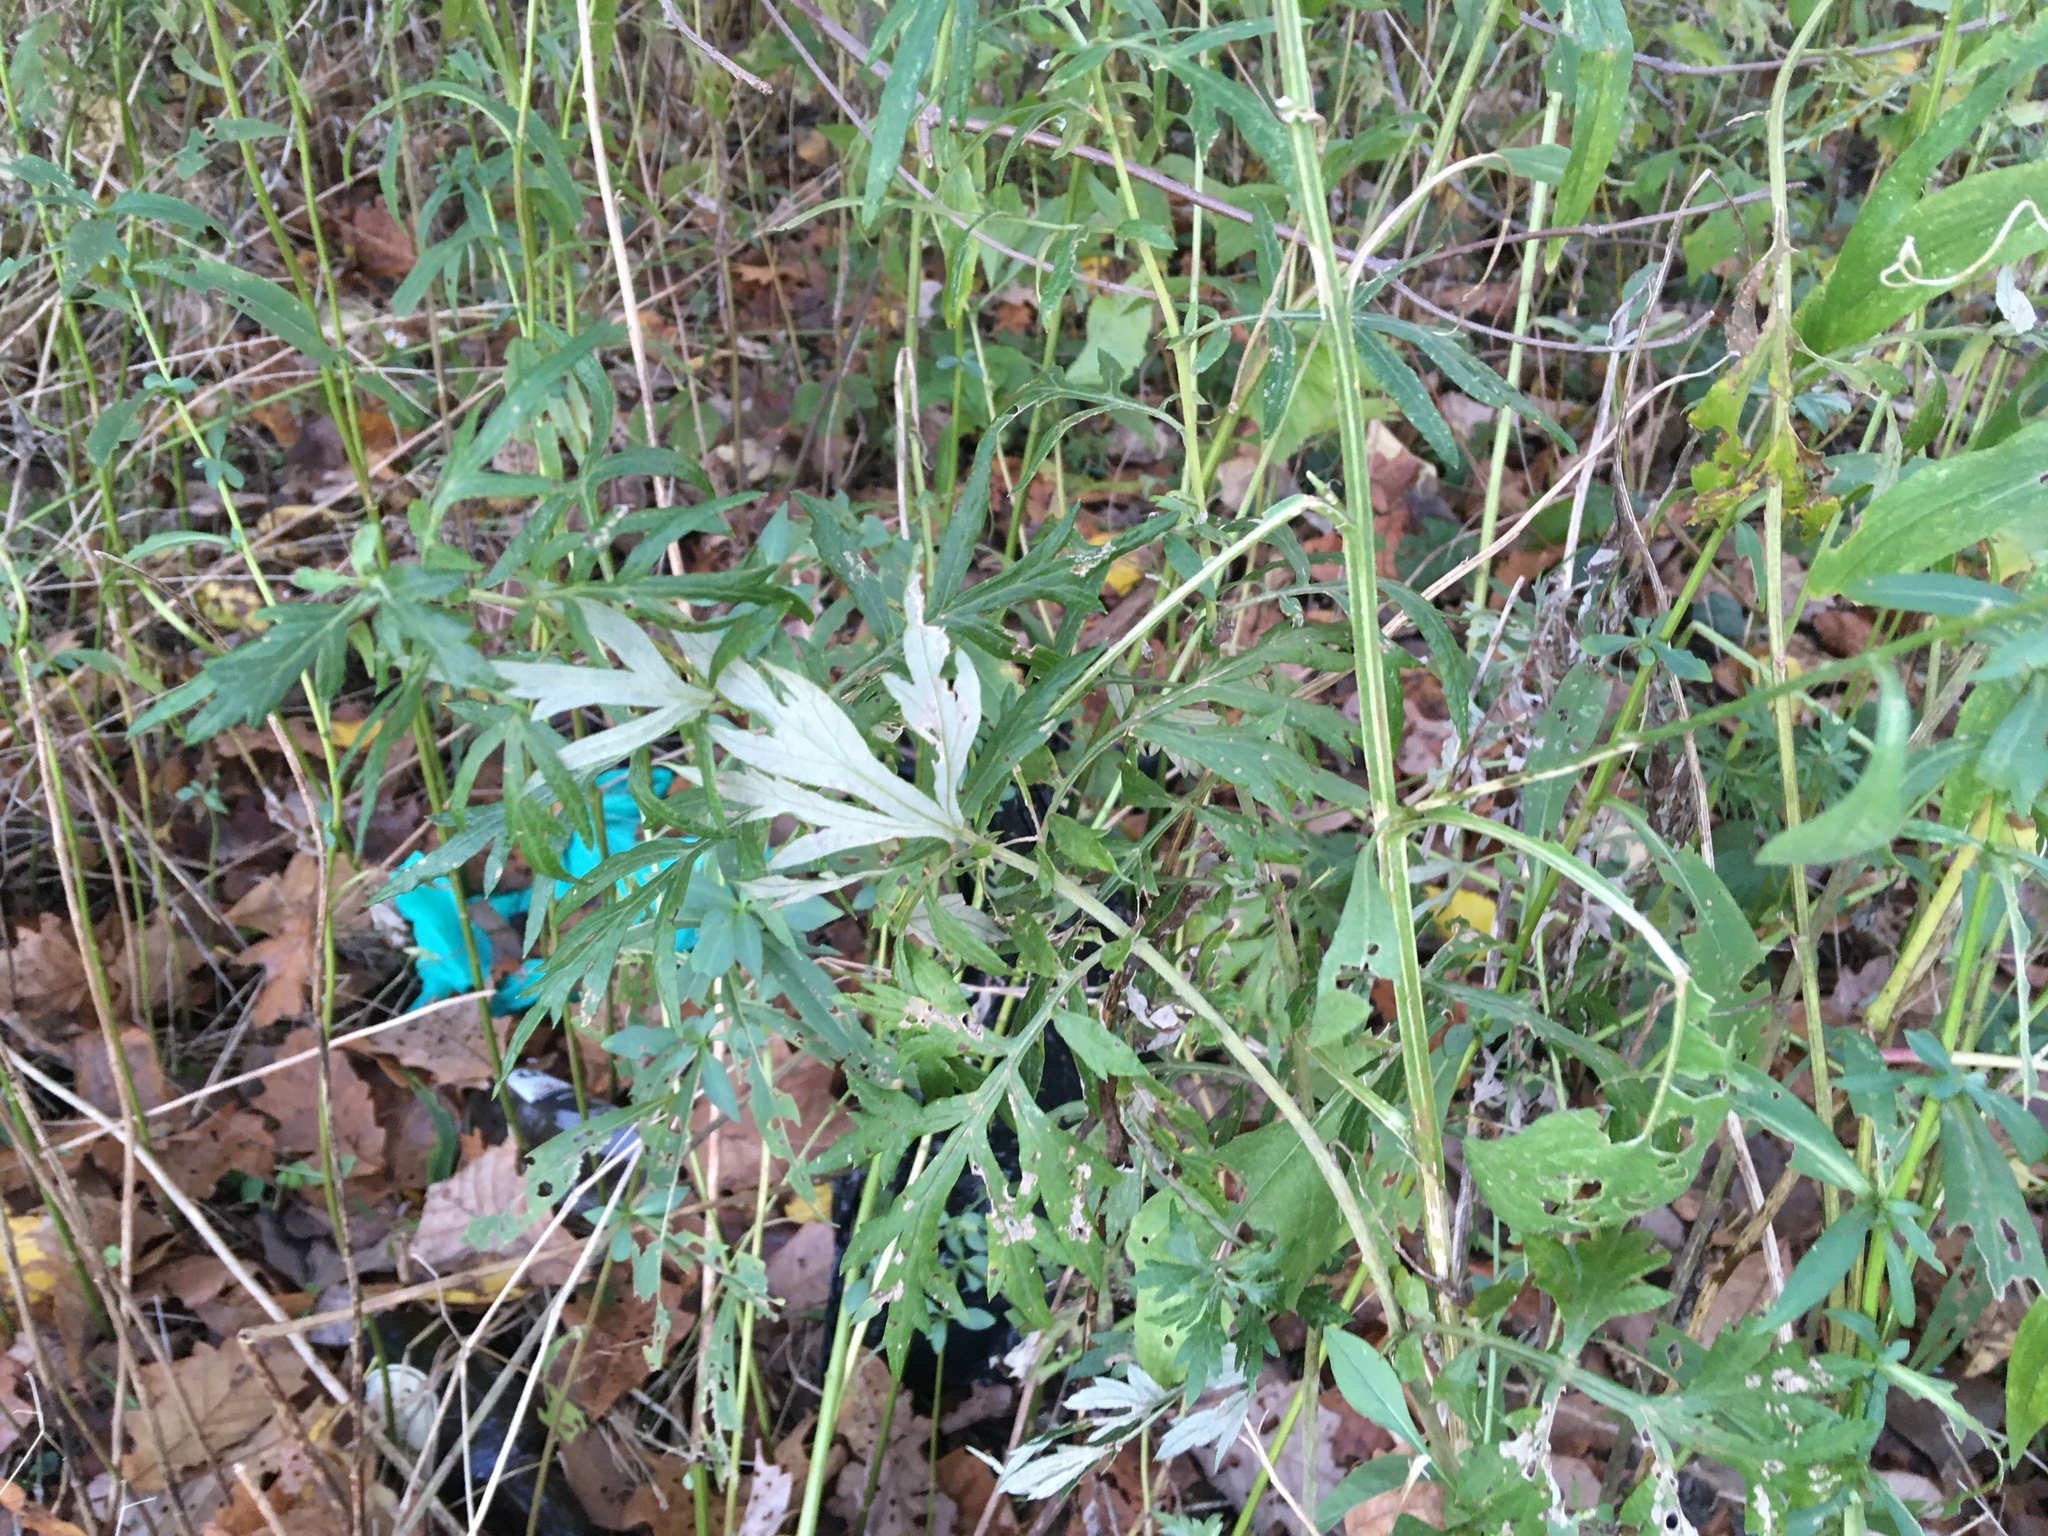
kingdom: Plantae
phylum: Tracheophyta
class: Magnoliopsida
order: Asterales
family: Asteraceae
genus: Artemisia
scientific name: Artemisia vulgaris
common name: Mugwort
